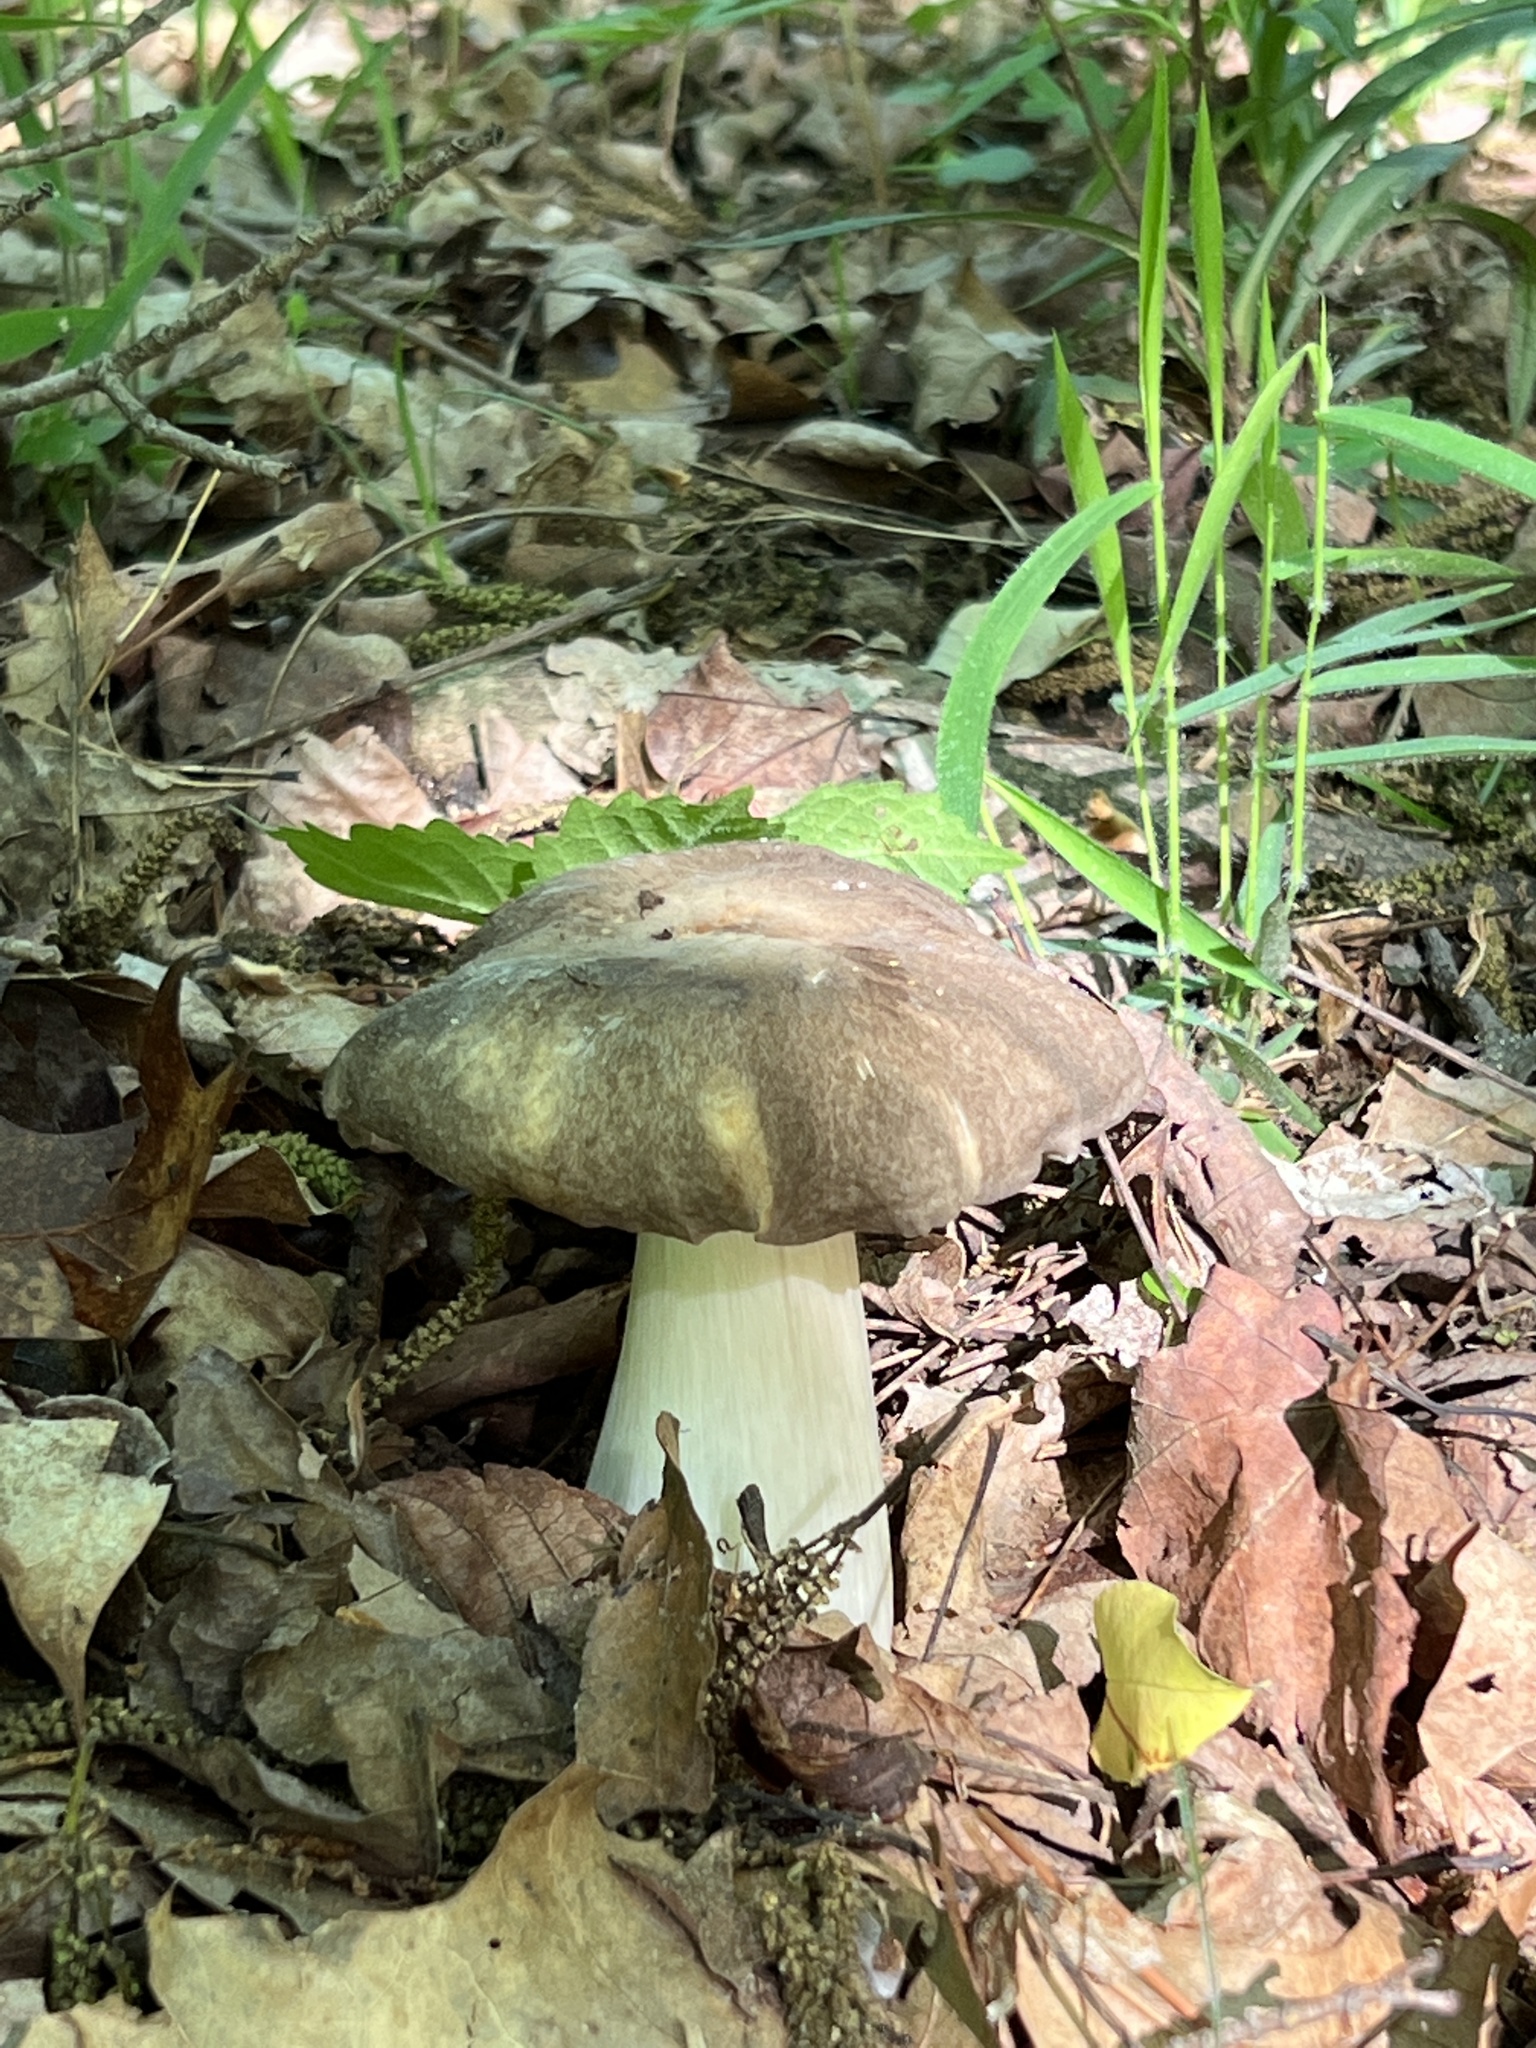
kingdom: Fungi
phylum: Basidiomycota
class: Agaricomycetes
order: Agaricales
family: Tricholomataceae
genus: Megacollybia
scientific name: Megacollybia rodmanii
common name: Eastern american platterful mushroom
